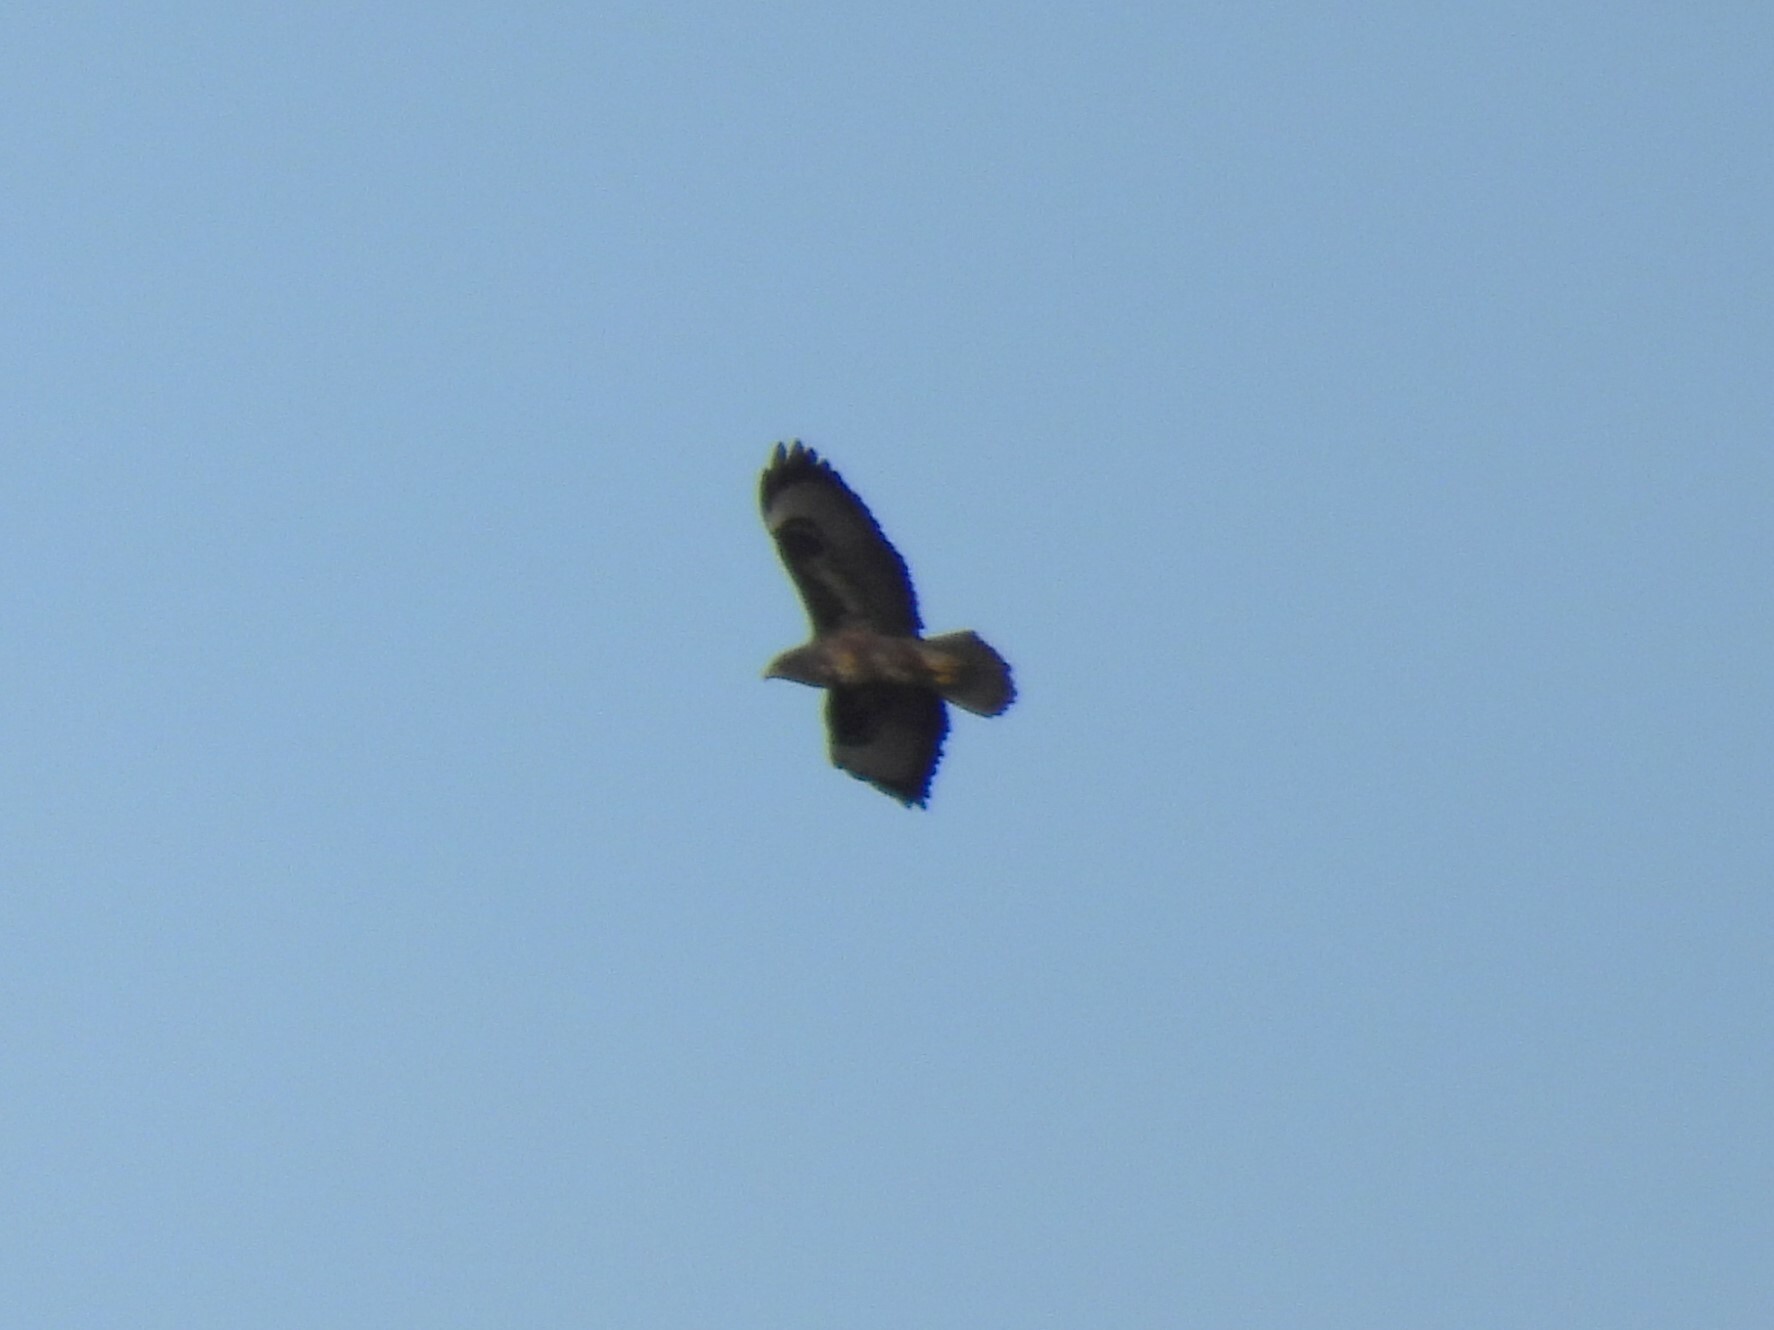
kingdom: Animalia
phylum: Chordata
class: Aves
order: Accipitriformes
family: Accipitridae
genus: Buteo
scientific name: Buteo buteo
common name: Common buzzard
